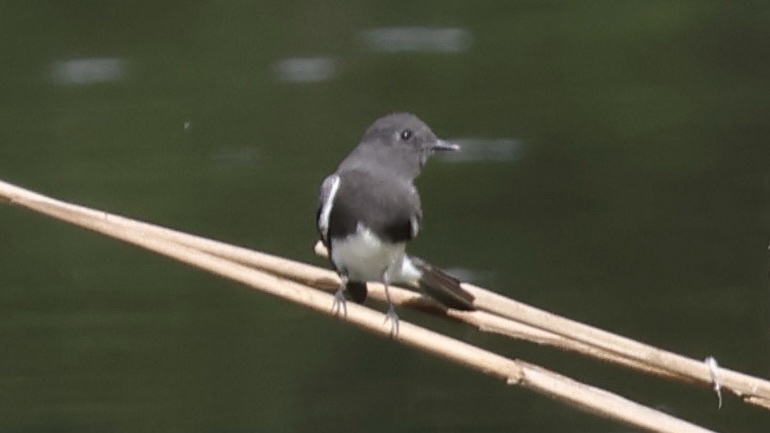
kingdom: Animalia
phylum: Chordata
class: Aves
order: Passeriformes
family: Tyrannidae
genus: Sayornis
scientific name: Sayornis nigricans
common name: Black phoebe
